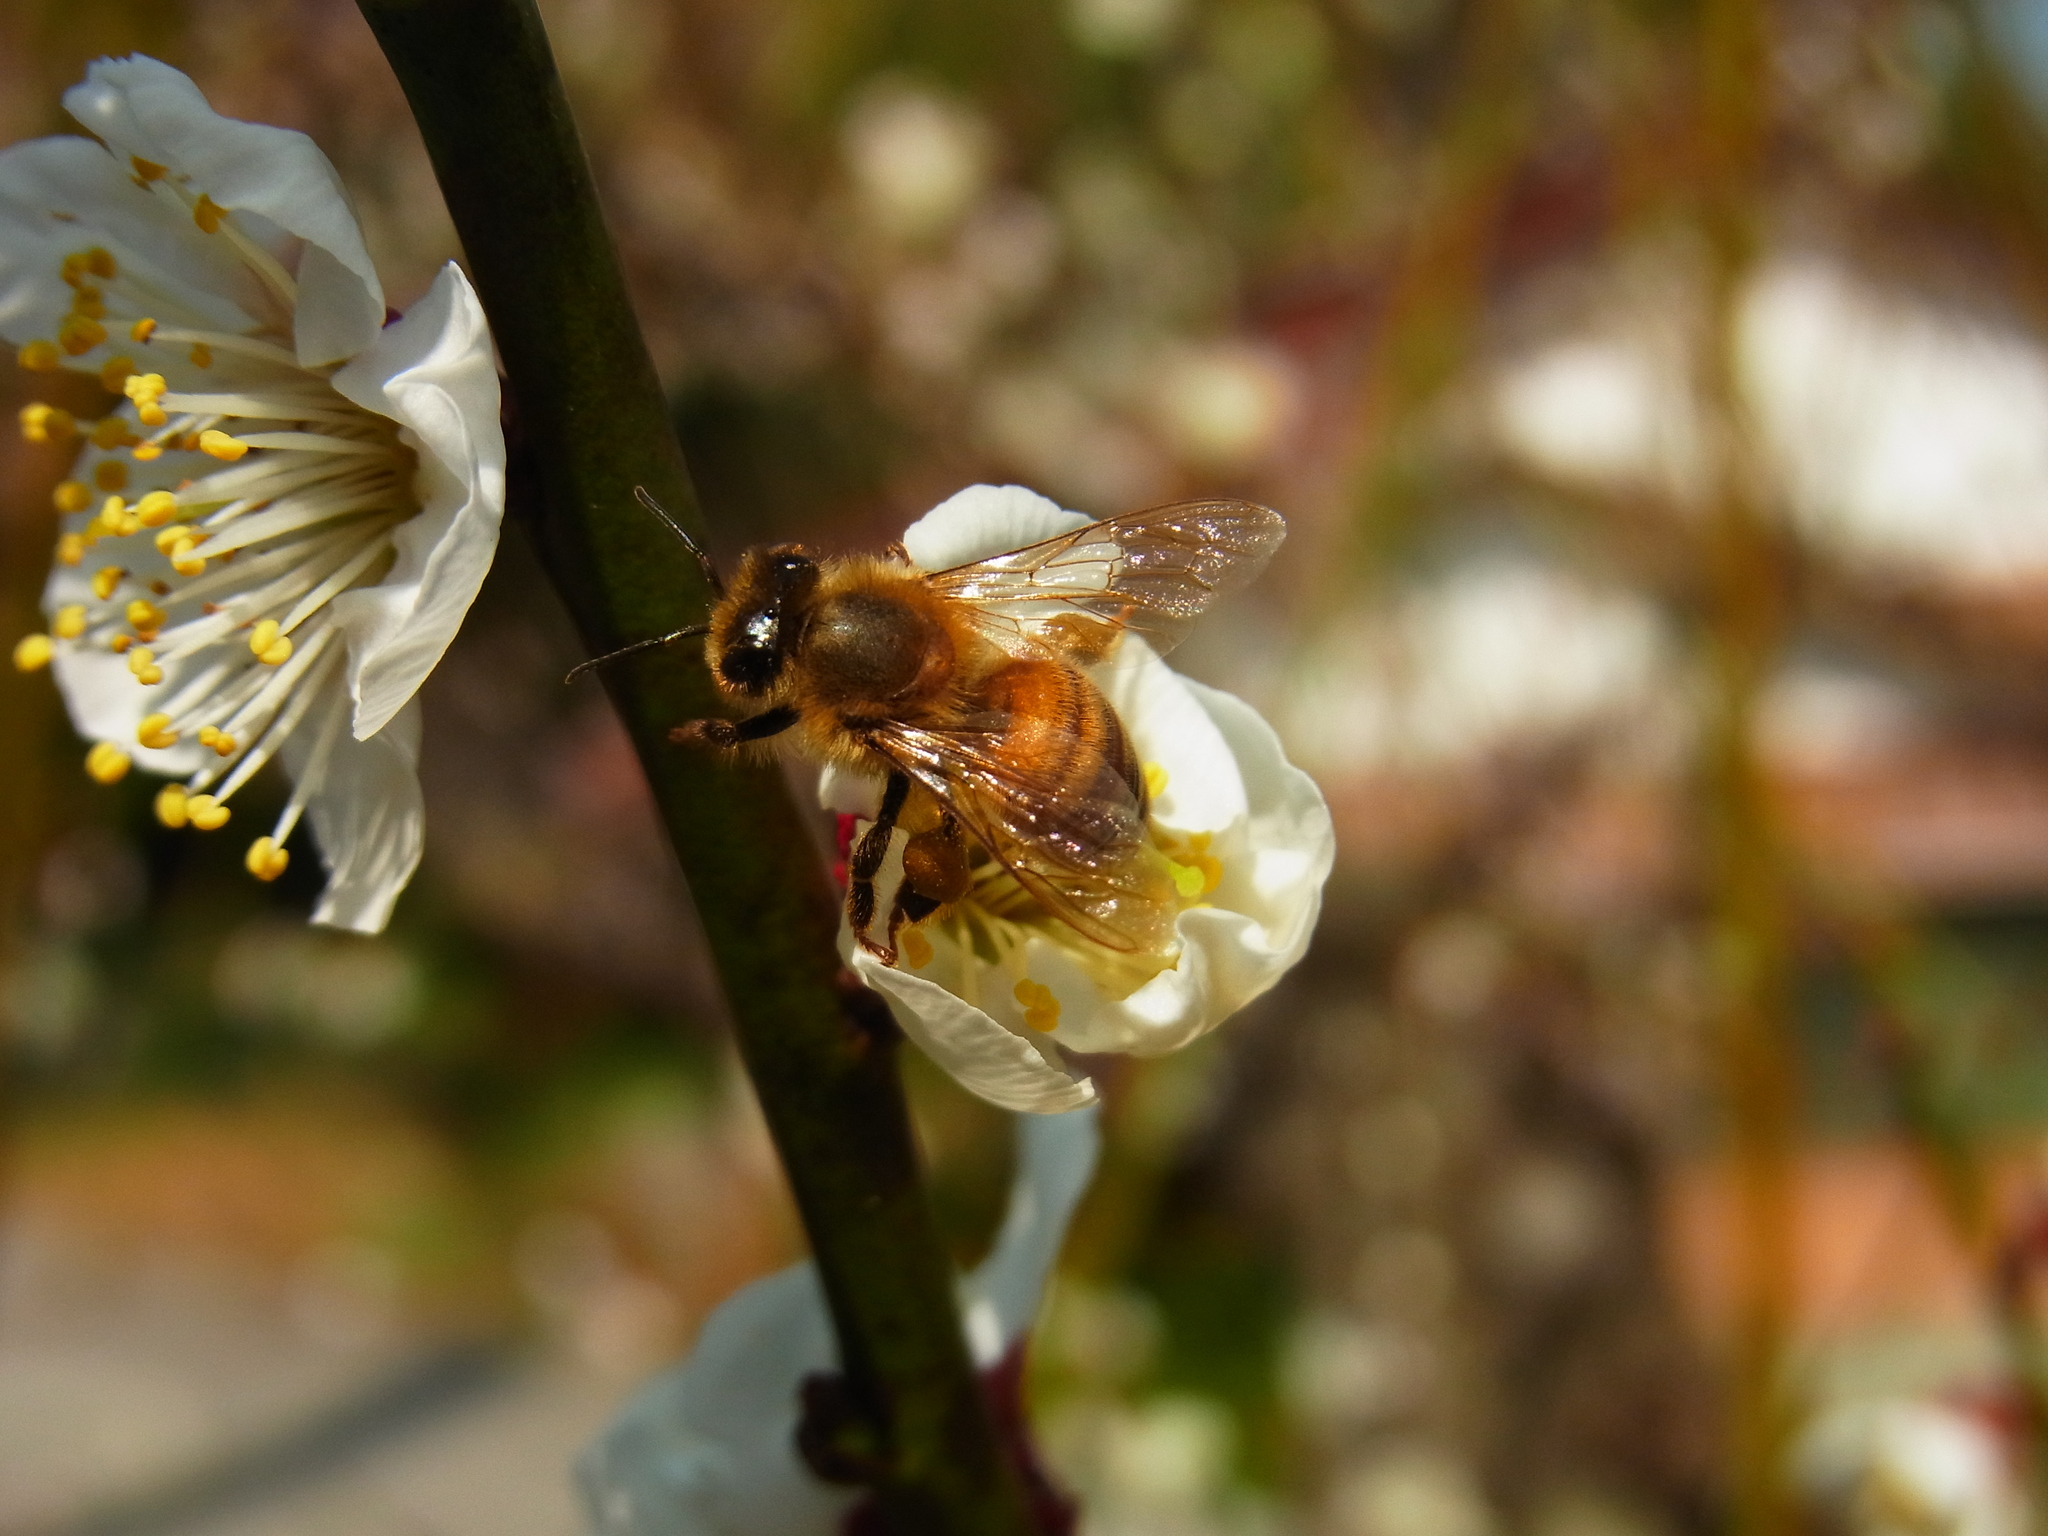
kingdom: Animalia
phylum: Arthropoda
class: Insecta
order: Hymenoptera
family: Apidae
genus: Apis
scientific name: Apis mellifera
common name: Honey bee
